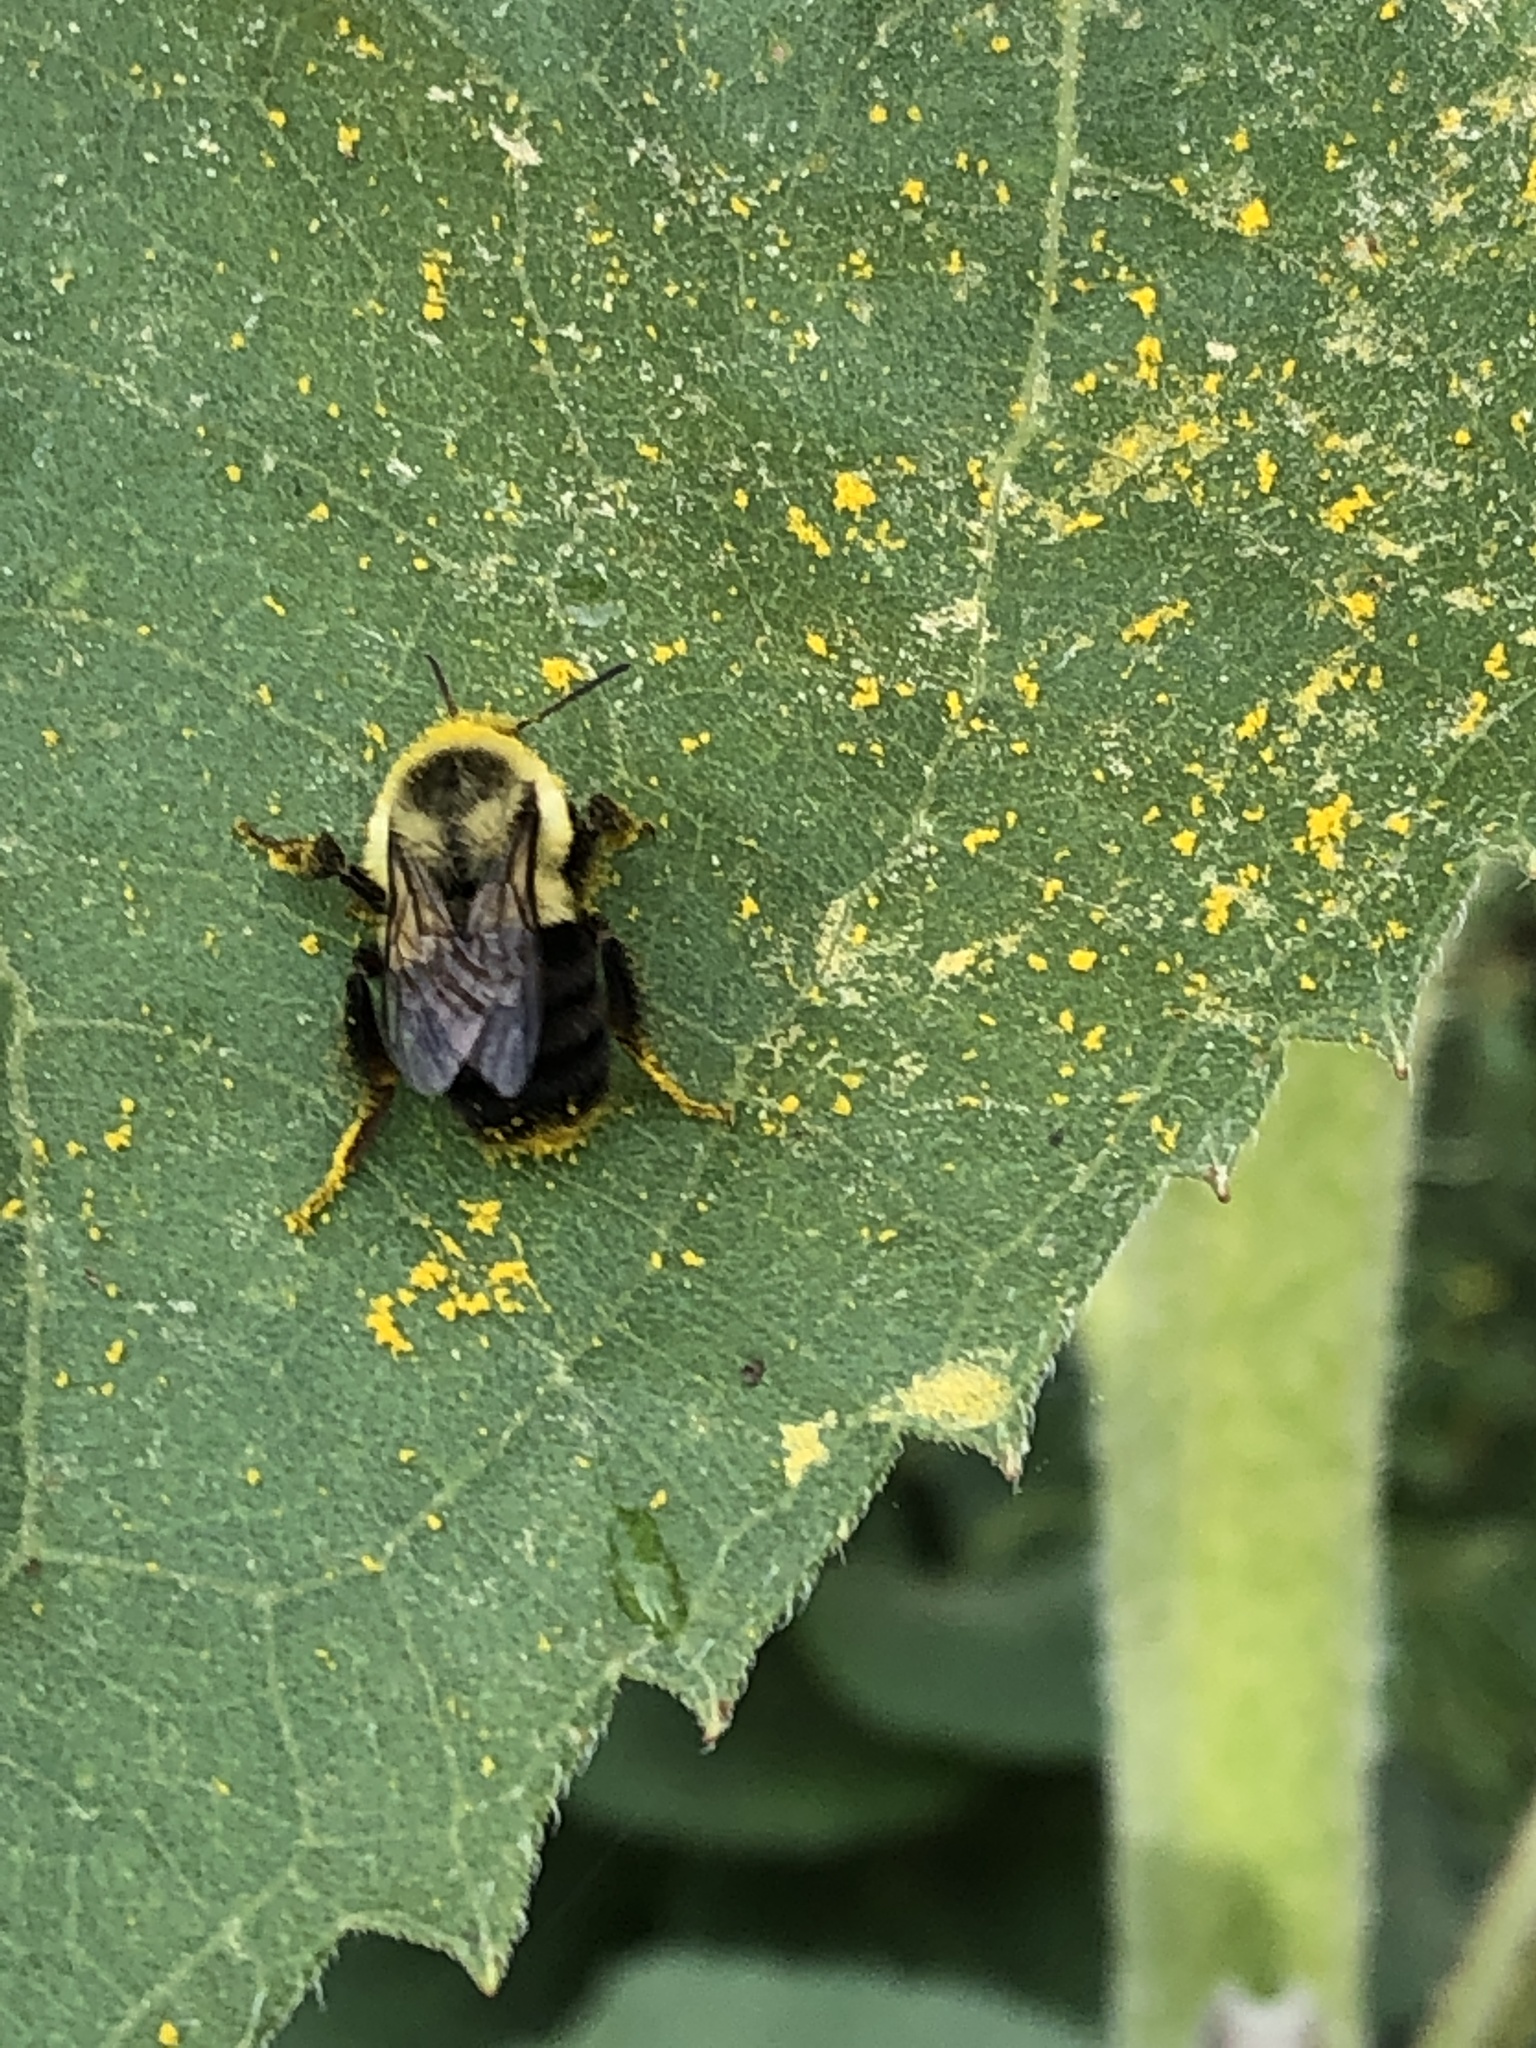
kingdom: Animalia
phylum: Arthropoda
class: Insecta
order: Hymenoptera
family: Apidae
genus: Bombus
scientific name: Bombus impatiens
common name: Common eastern bumble bee
